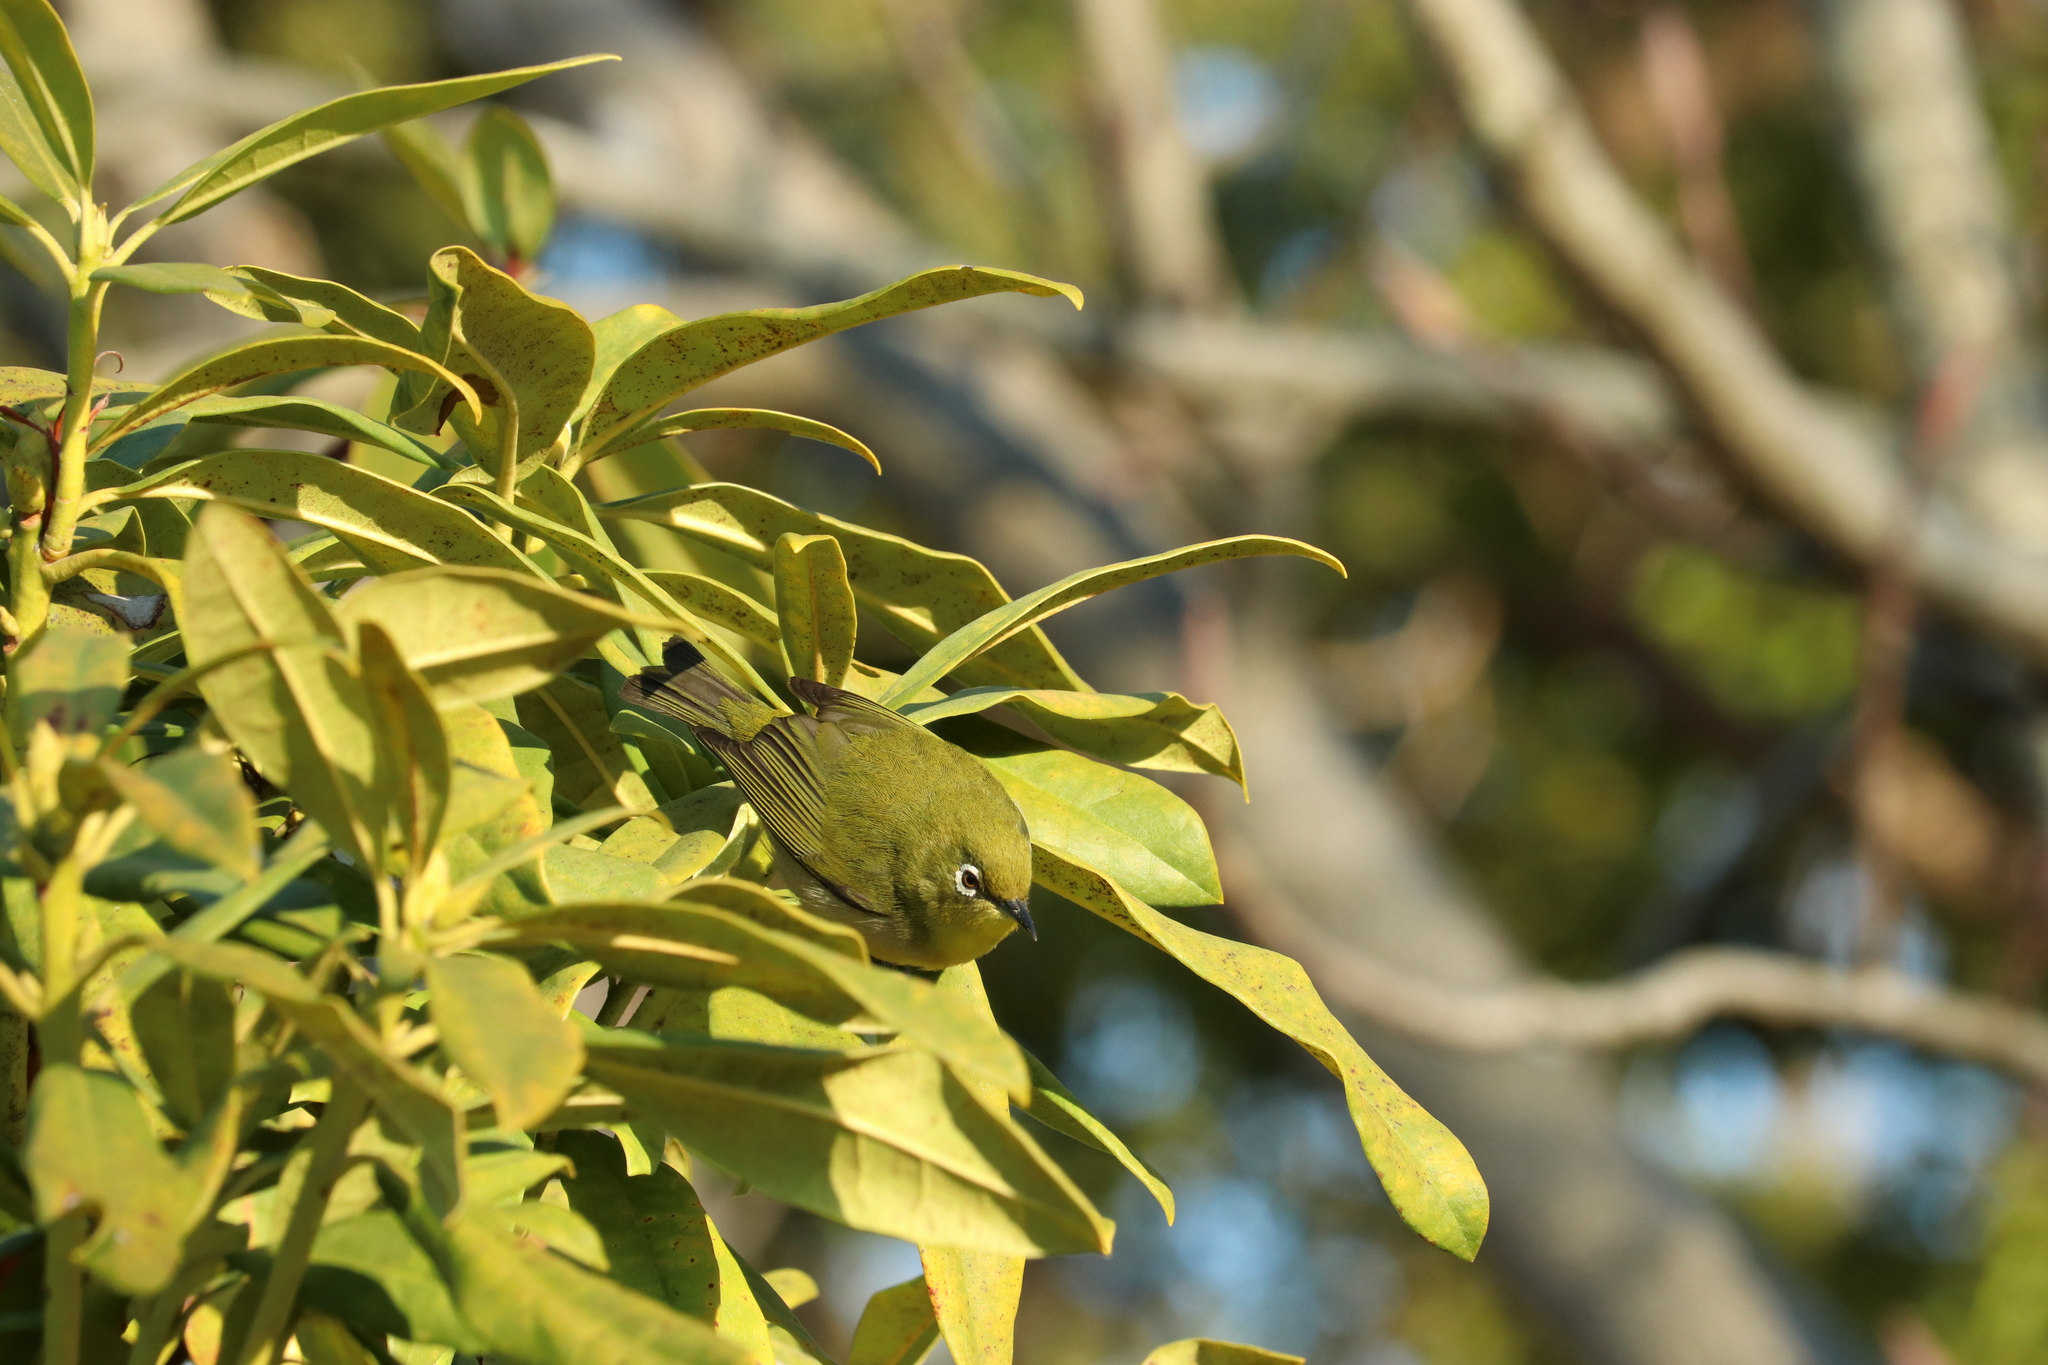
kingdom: Animalia
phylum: Chordata
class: Aves
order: Passeriformes
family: Zosteropidae
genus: Zosterops
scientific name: Zosterops japonicus
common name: Japanese white-eye
